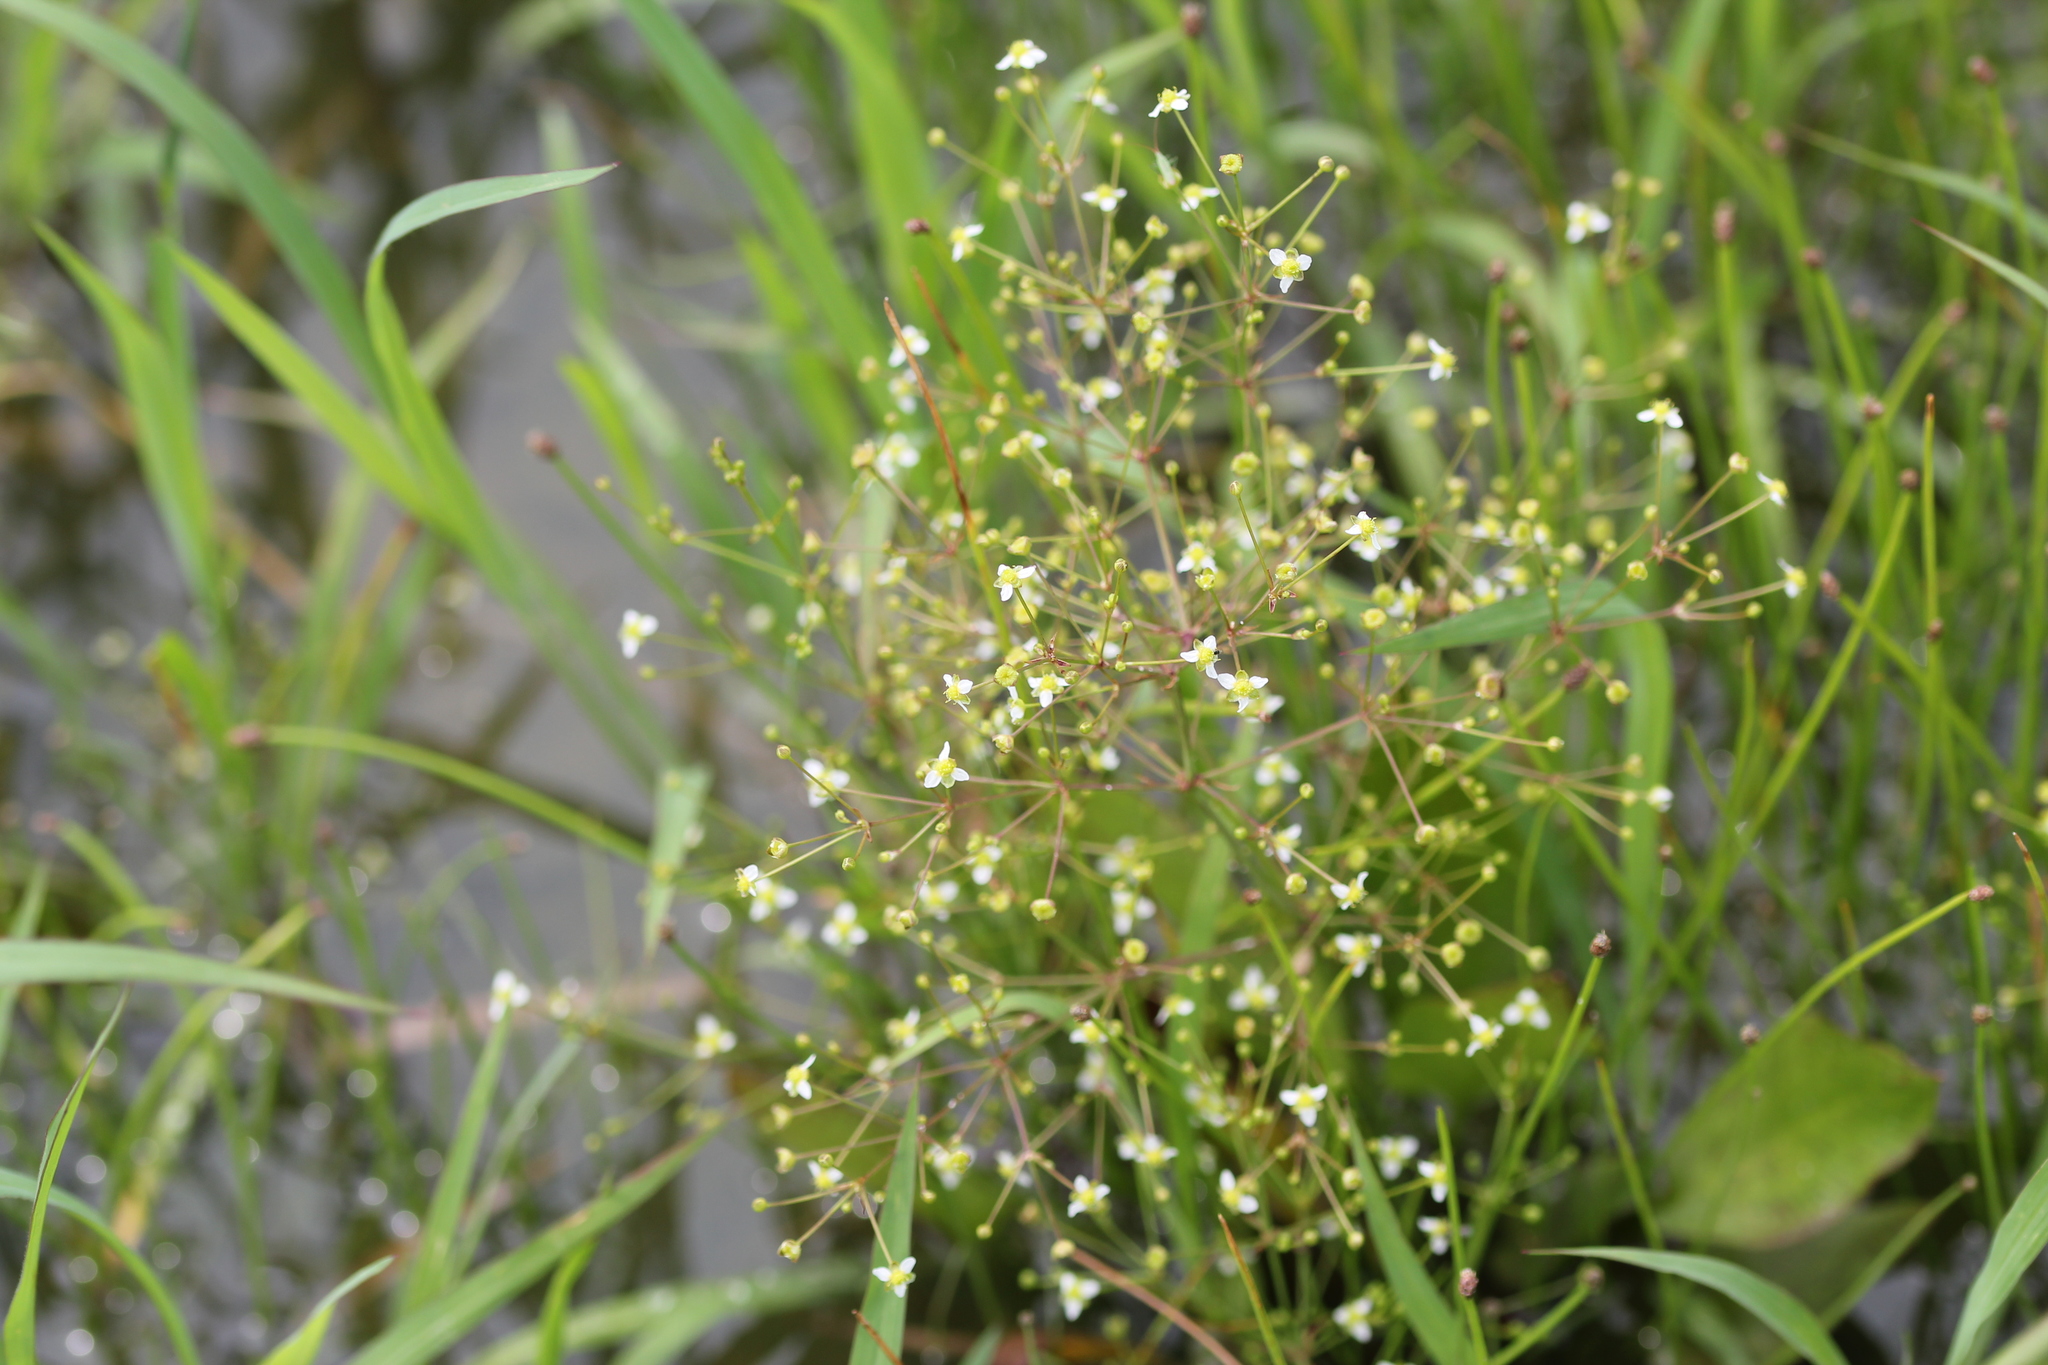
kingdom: Plantae
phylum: Tracheophyta
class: Liliopsida
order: Alismatales
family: Alismataceae
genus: Alisma
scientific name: Alisma subcordatum
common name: Southern water-plantain
